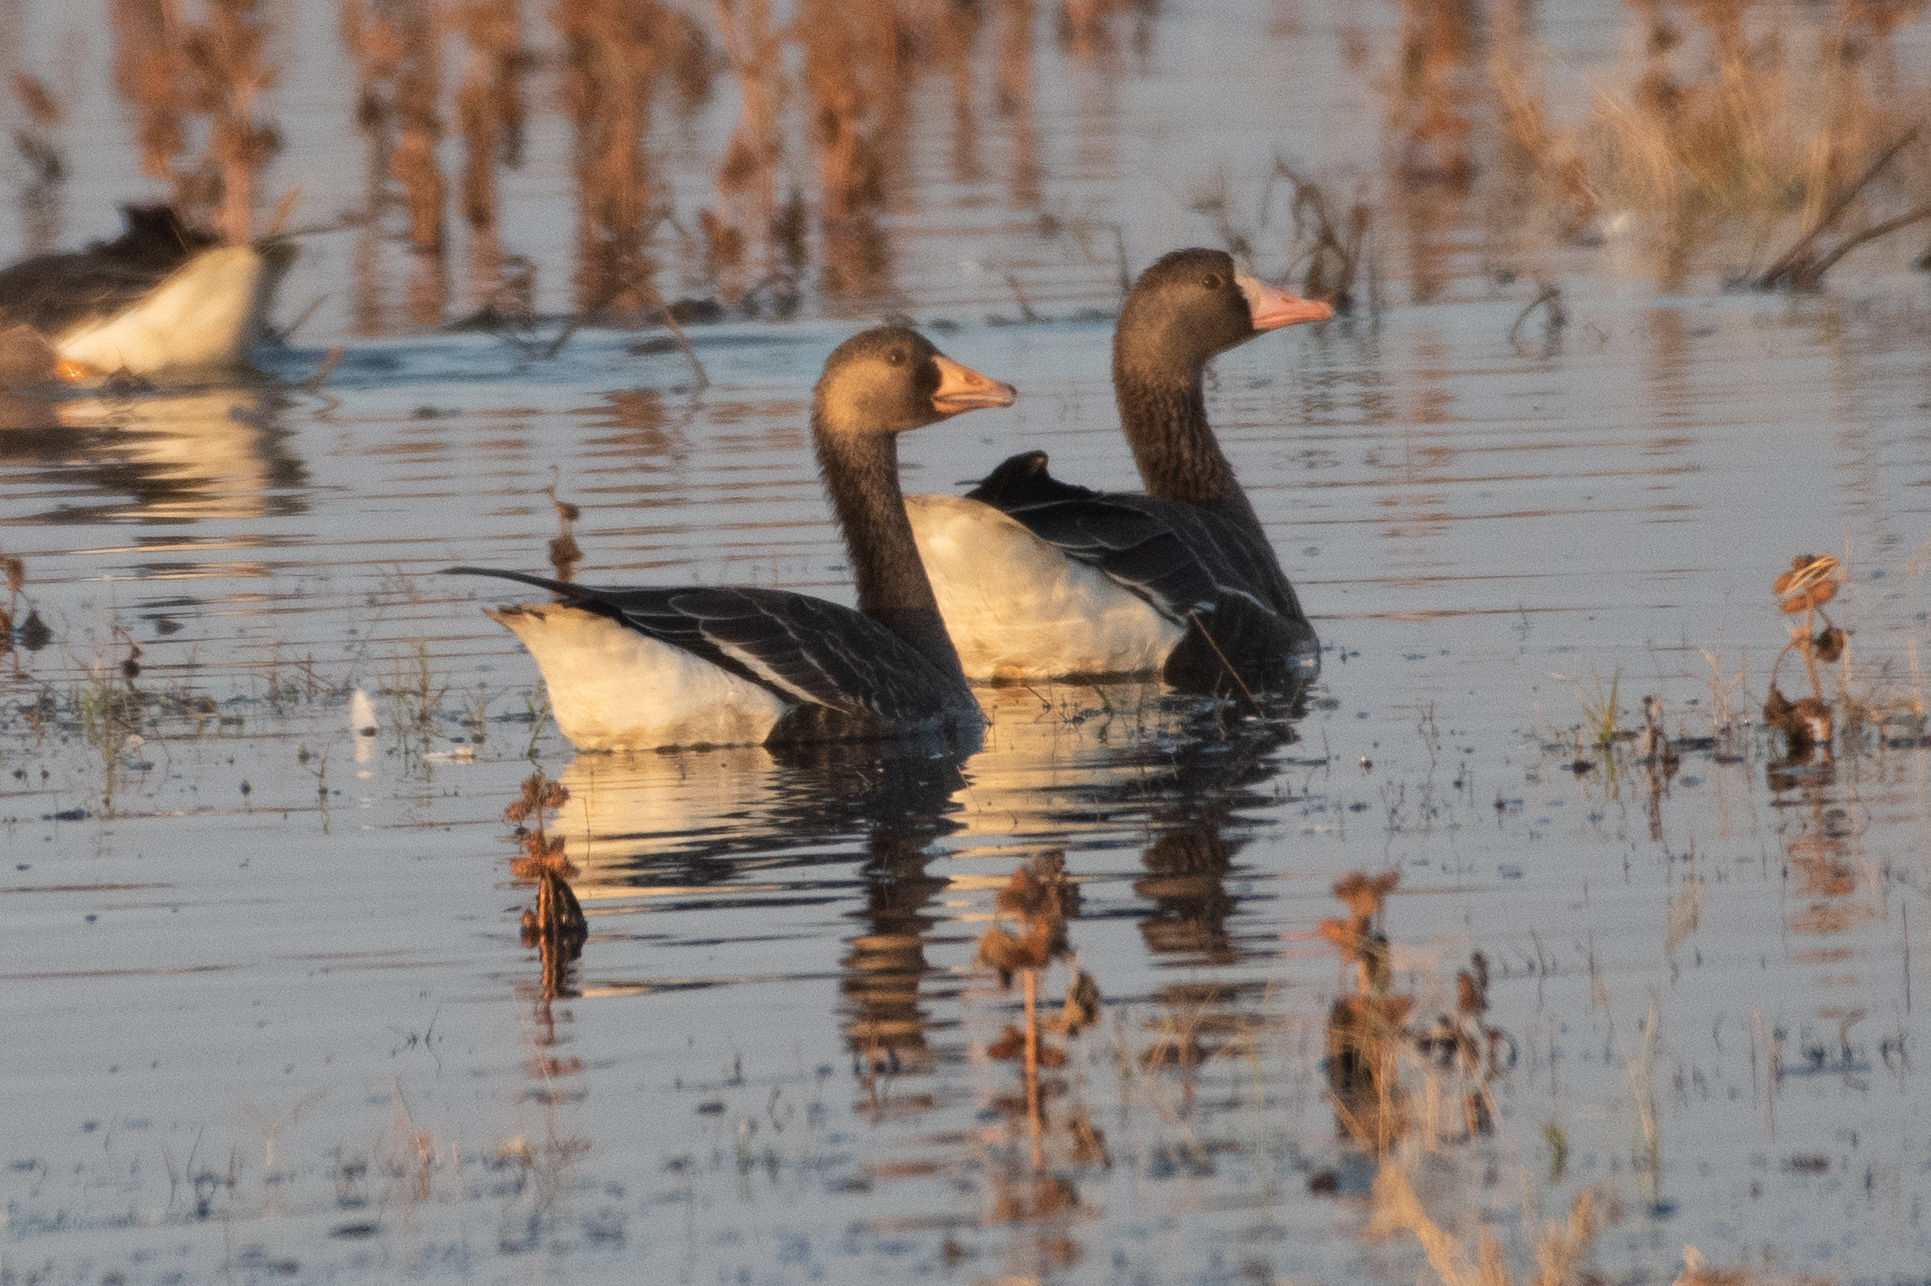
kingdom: Animalia
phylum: Chordata
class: Aves
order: Anseriformes
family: Anatidae
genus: Anser
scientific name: Anser albifrons
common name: Greater white-fronted goose
